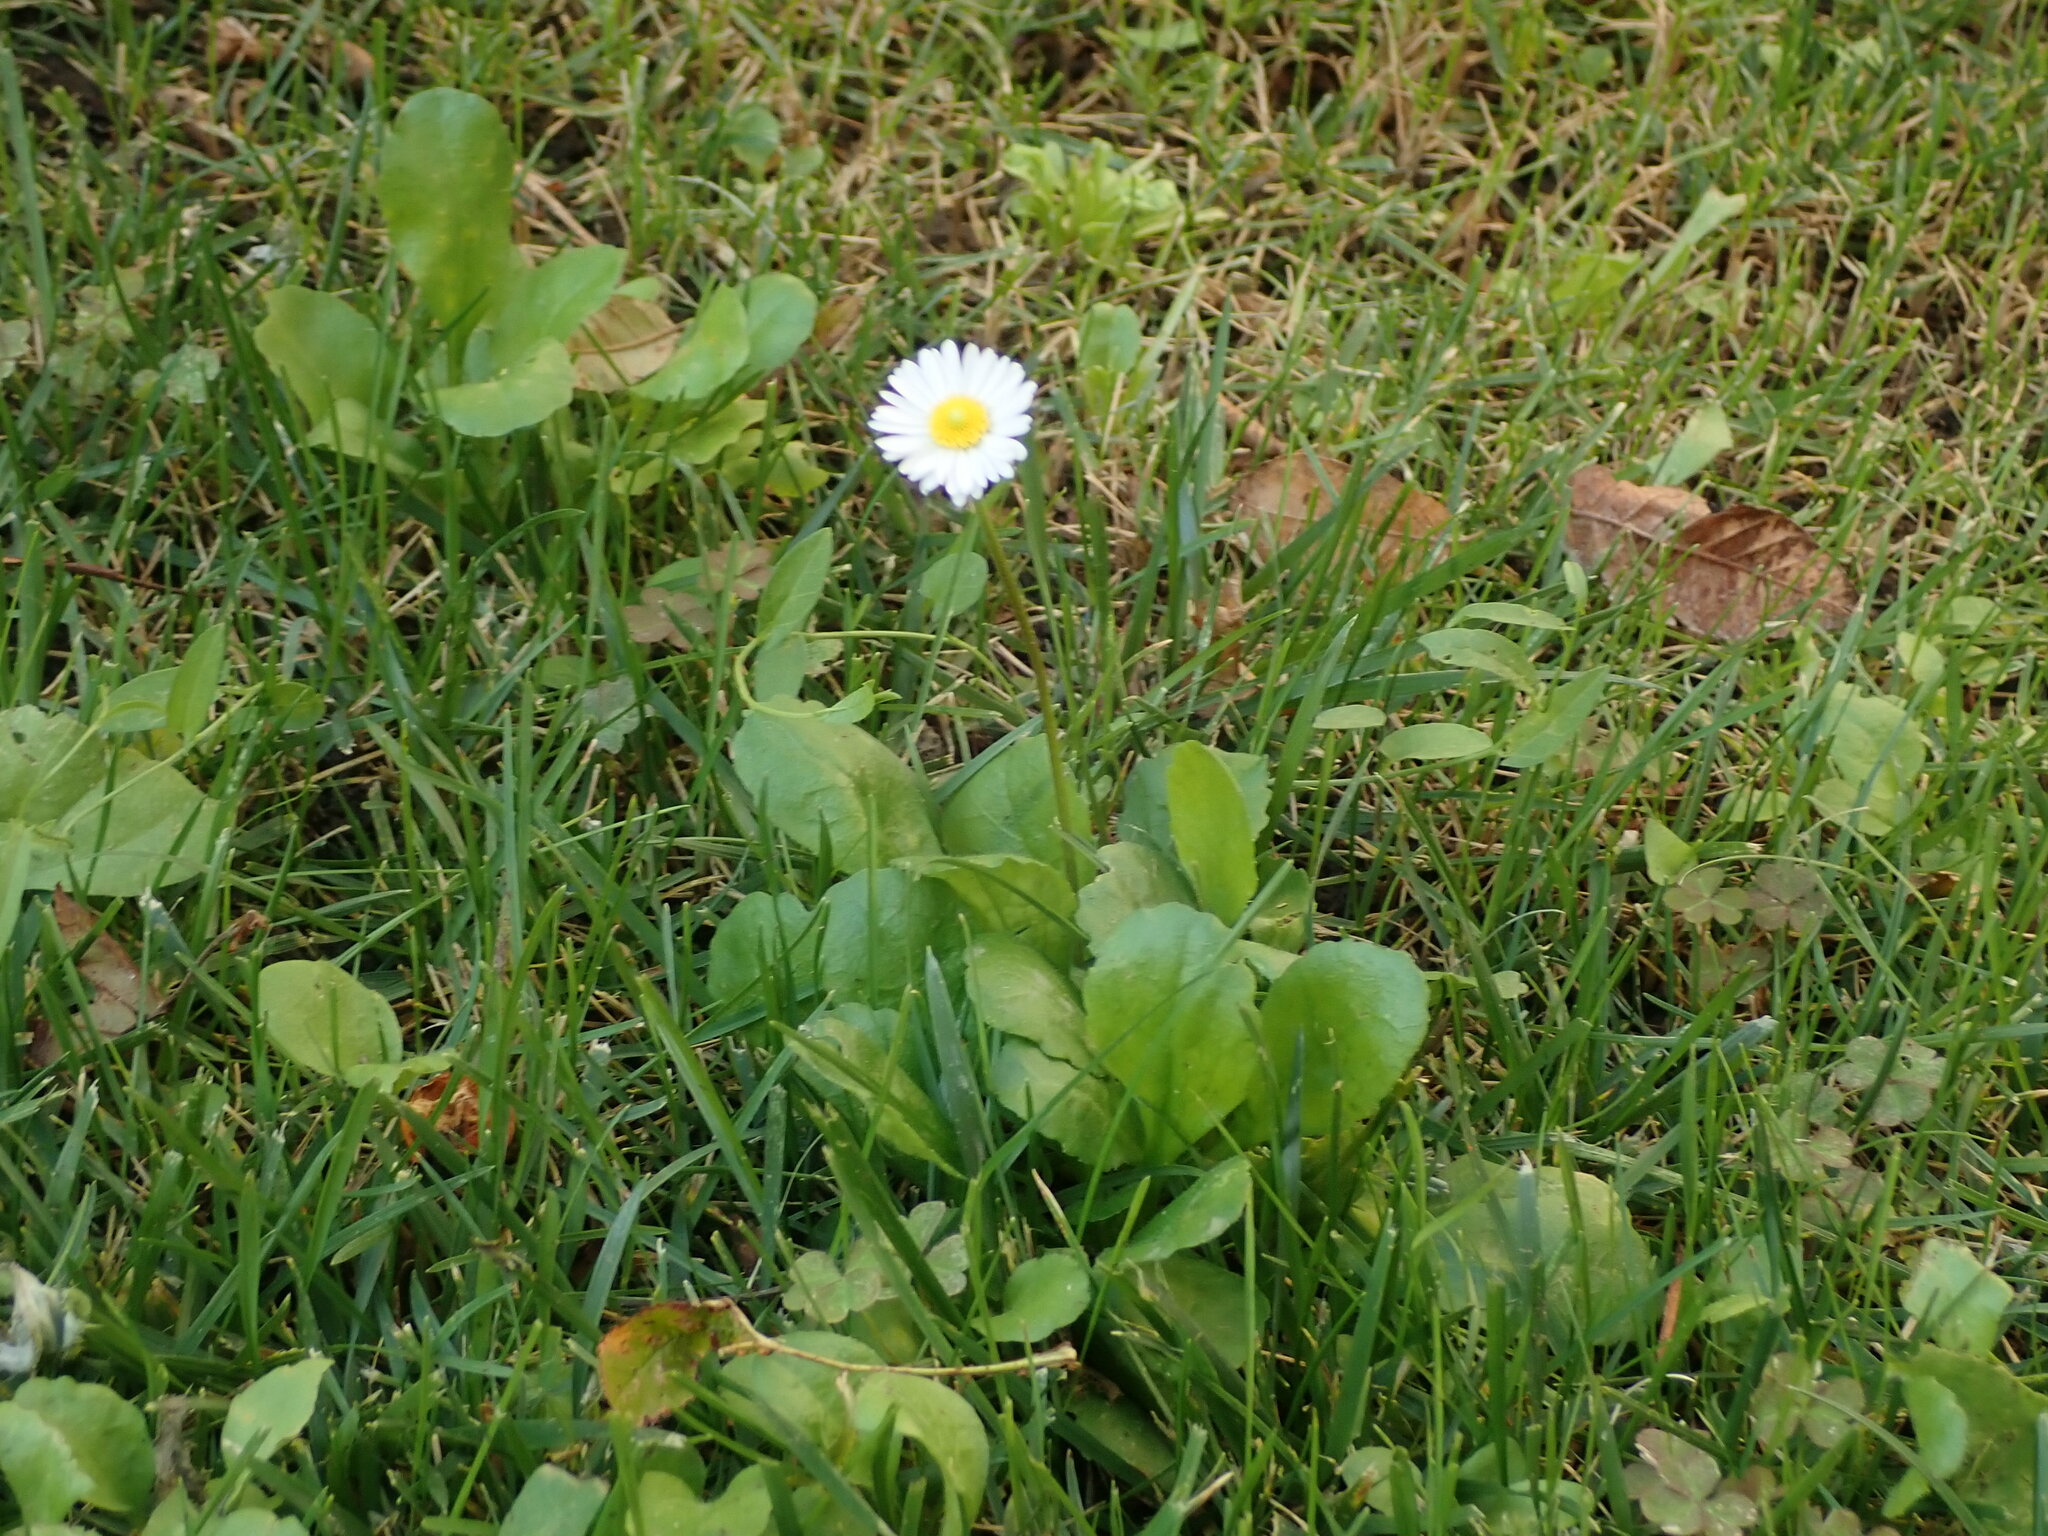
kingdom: Plantae
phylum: Tracheophyta
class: Magnoliopsida
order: Asterales
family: Asteraceae
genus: Bellis
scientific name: Bellis perennis
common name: Lawndaisy
